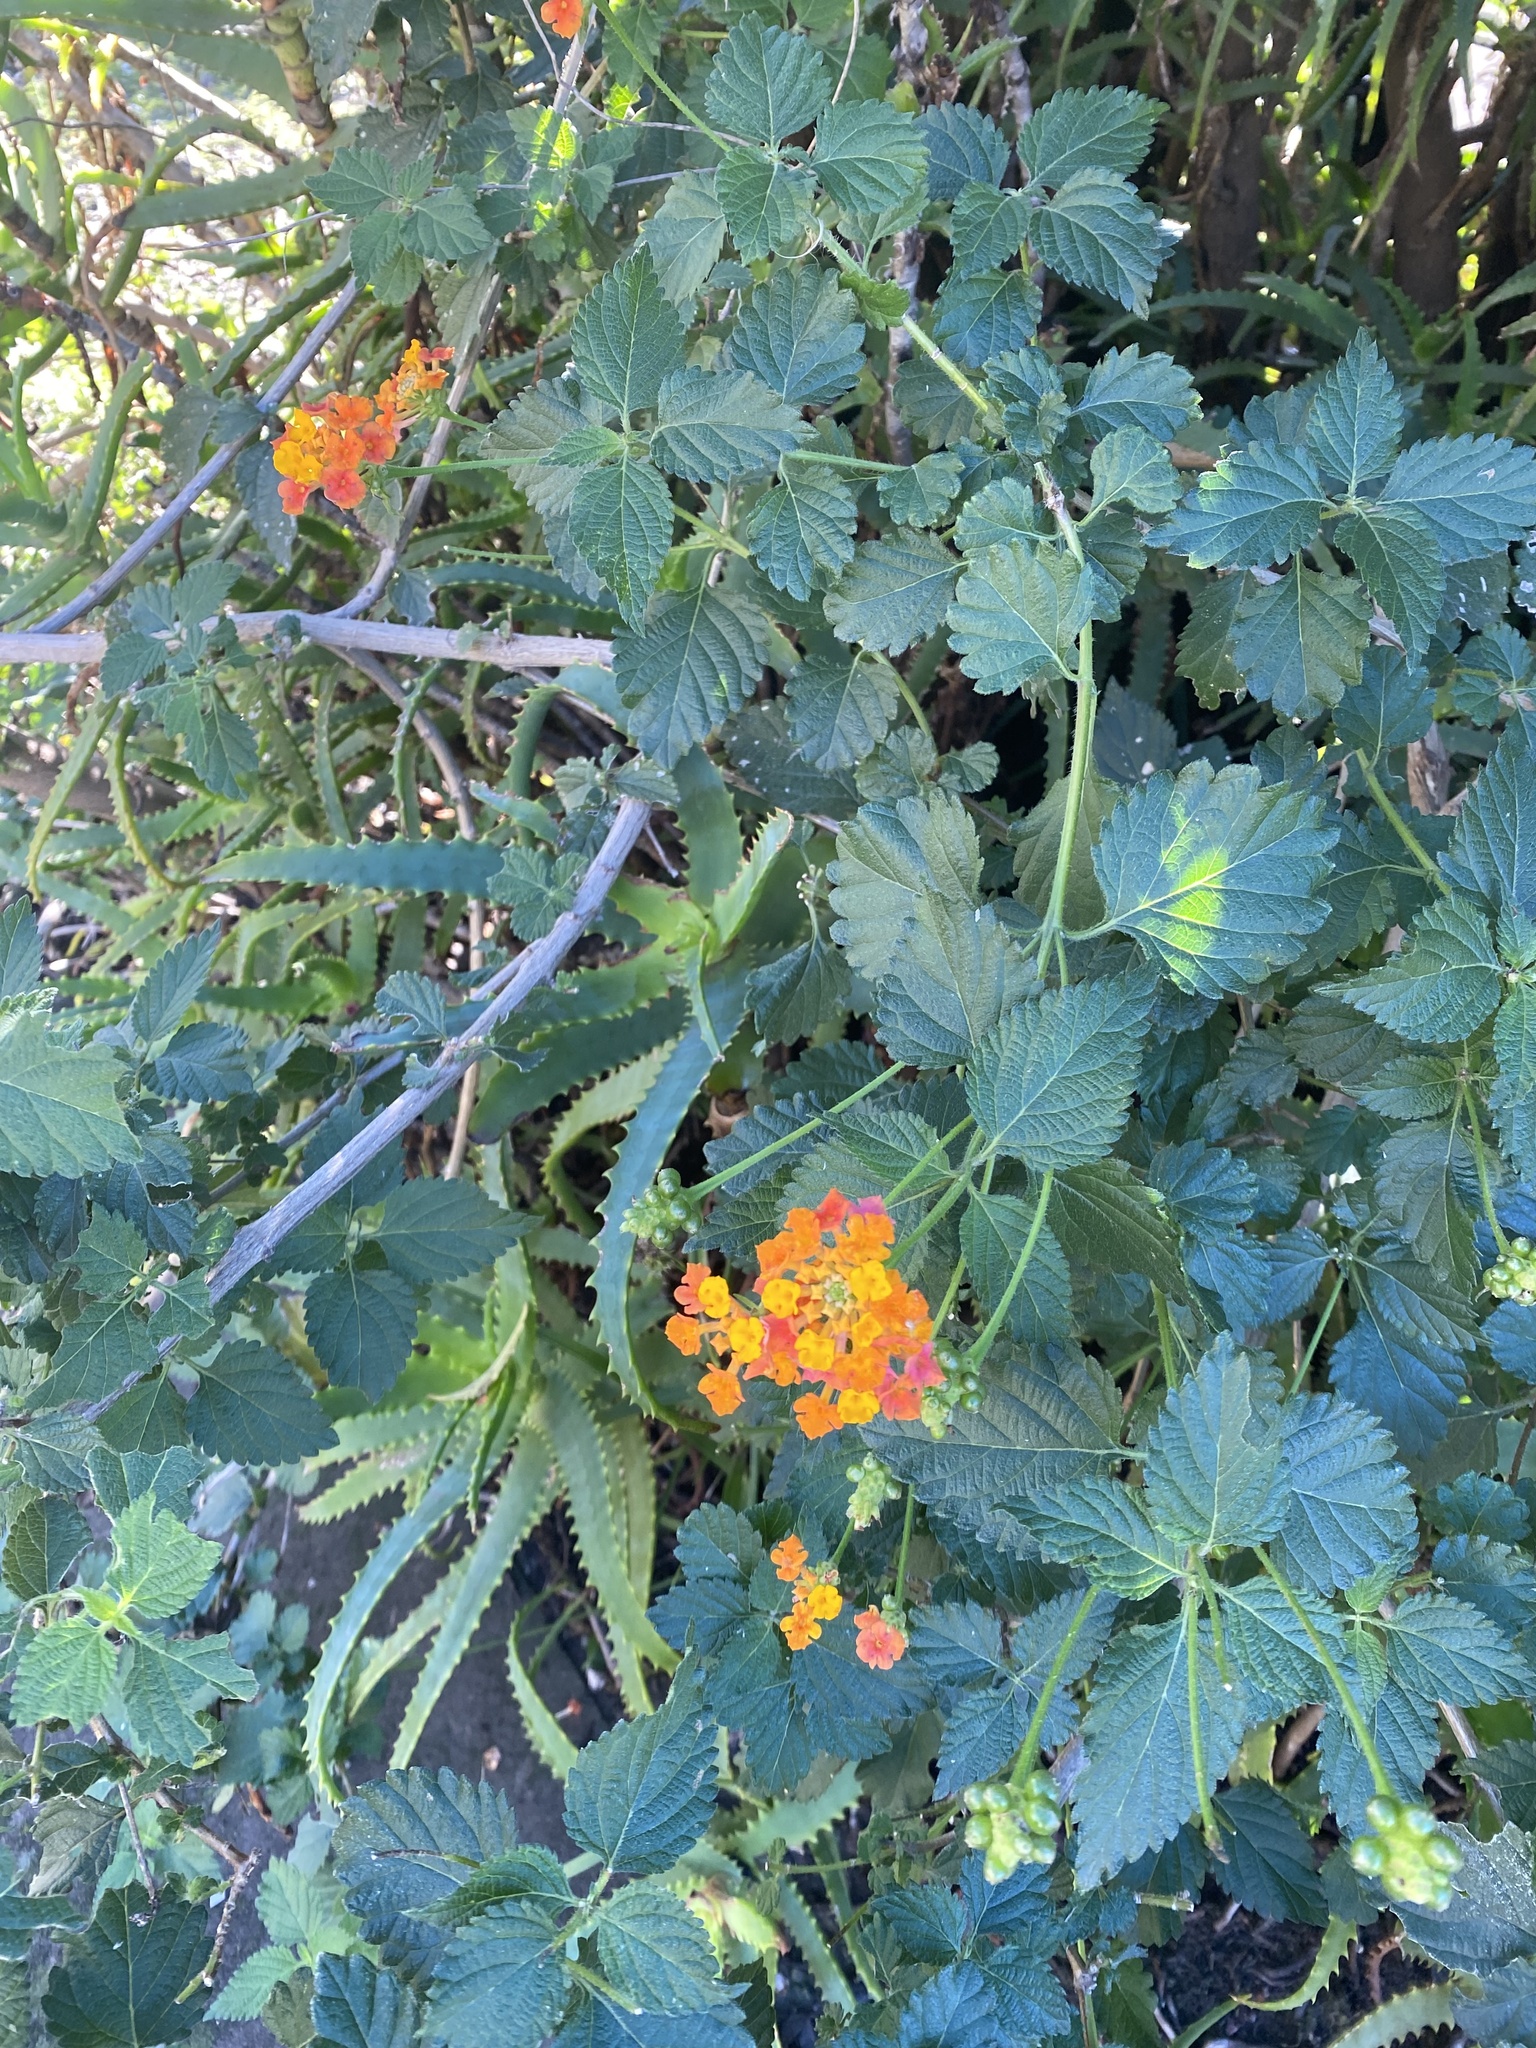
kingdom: Plantae
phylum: Tracheophyta
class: Magnoliopsida
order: Lamiales
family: Verbenaceae
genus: Lantana
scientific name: Lantana camara
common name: Lantana
